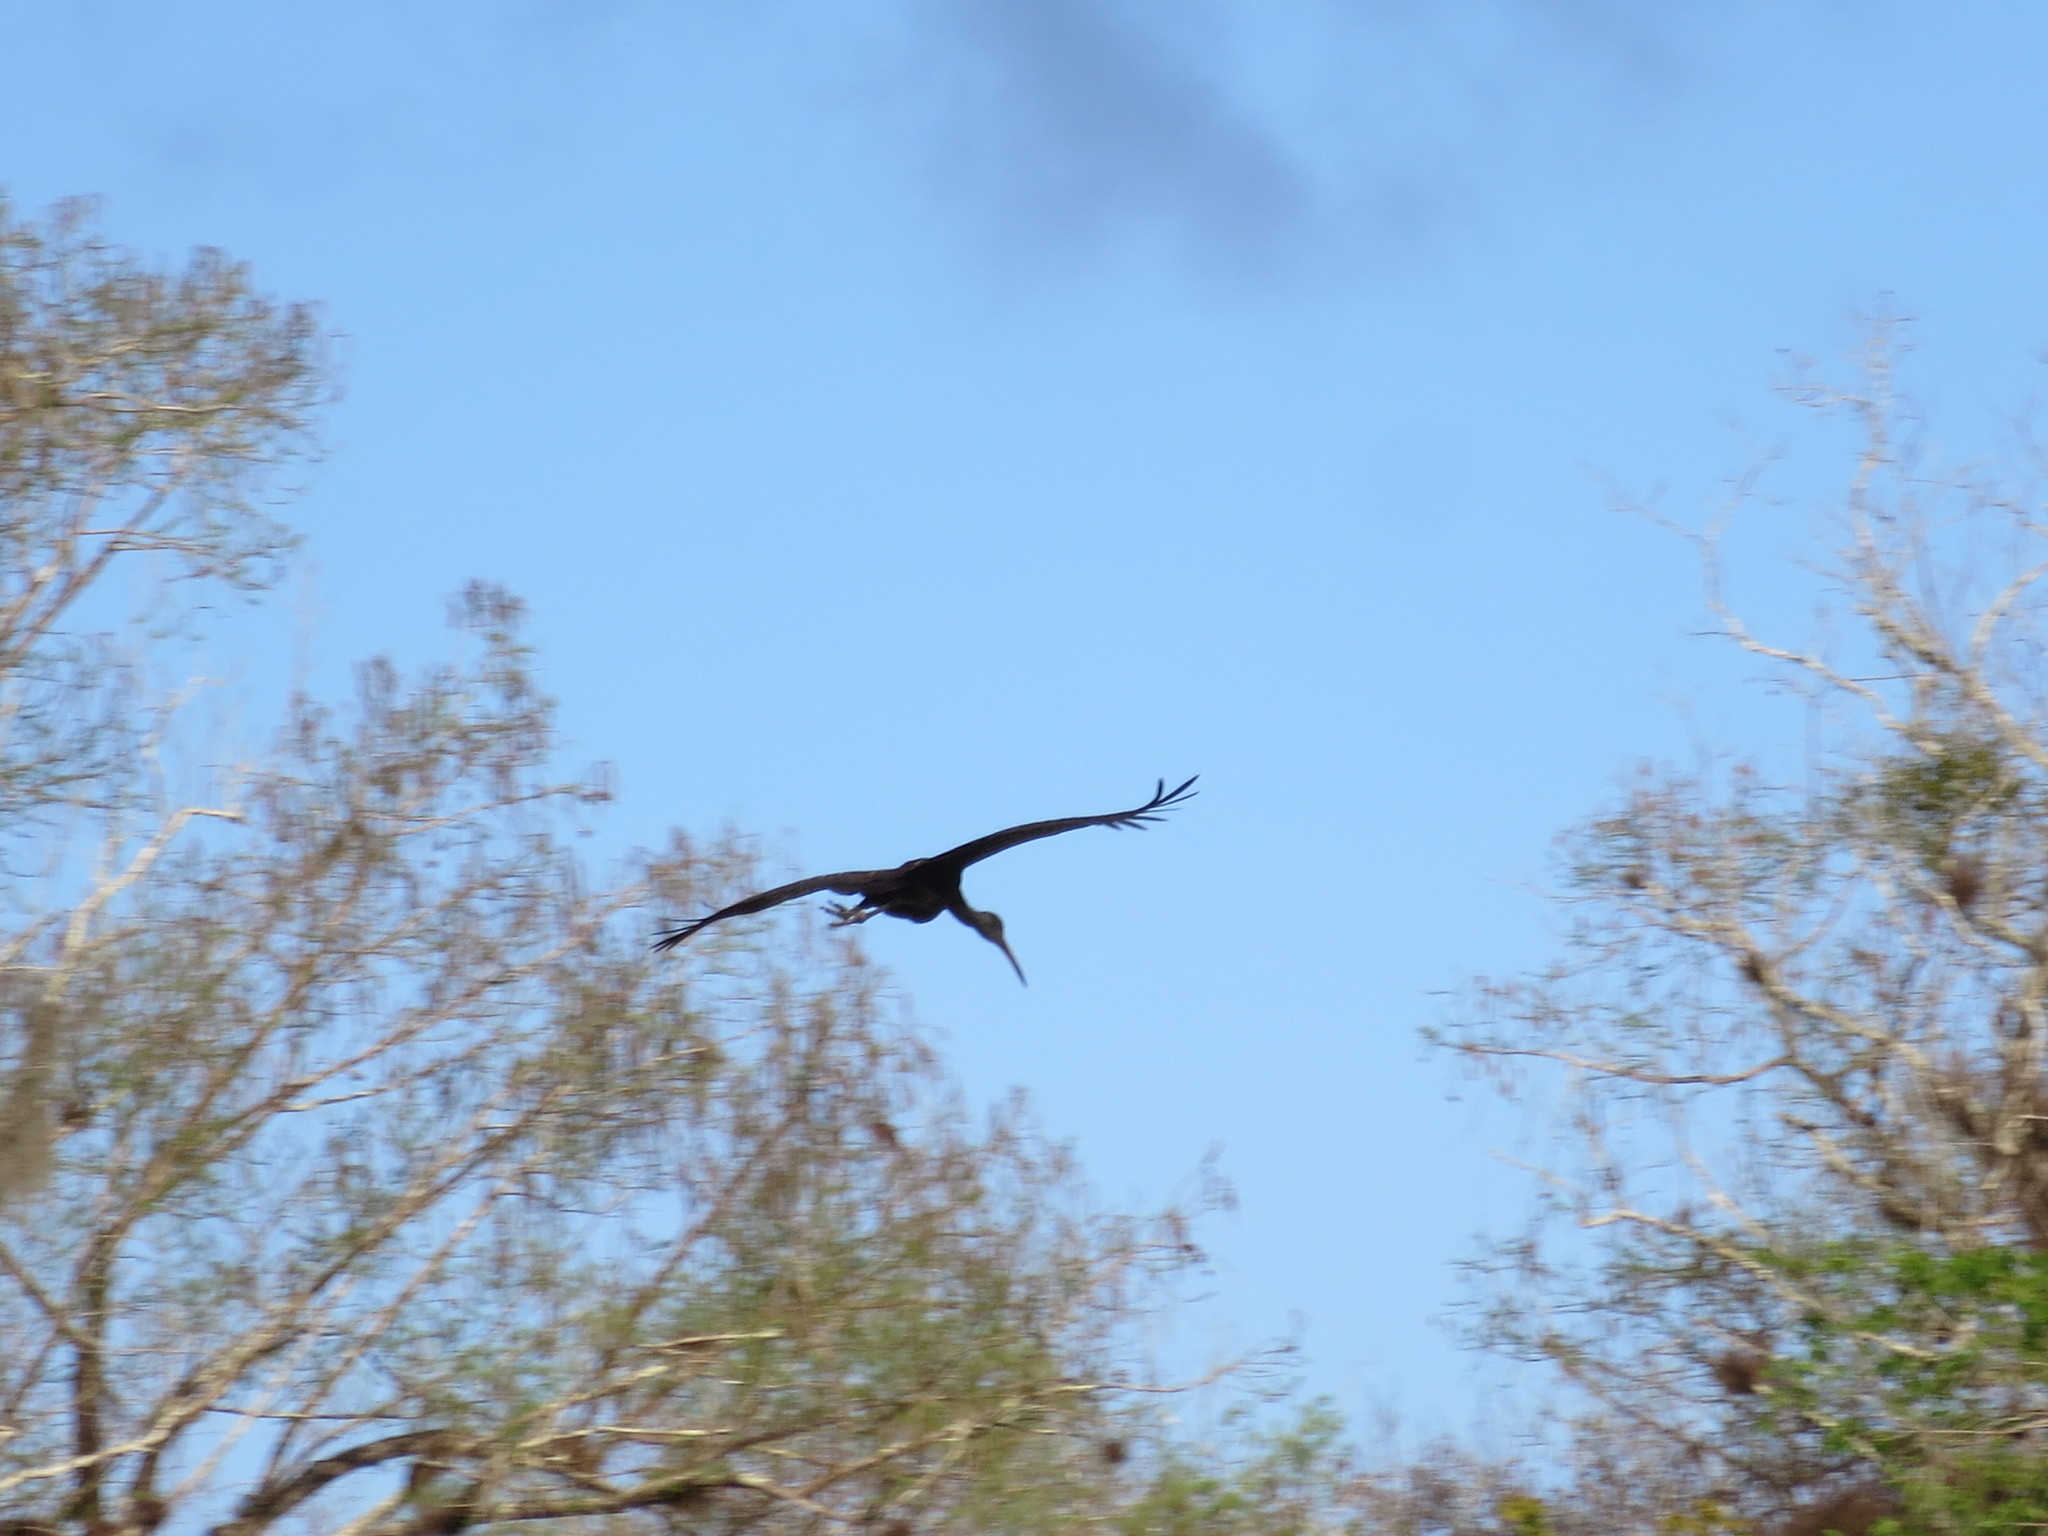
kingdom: Animalia
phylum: Chordata
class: Aves
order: Gruiformes
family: Aramidae
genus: Aramus
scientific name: Aramus guarauna
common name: Limpkin
